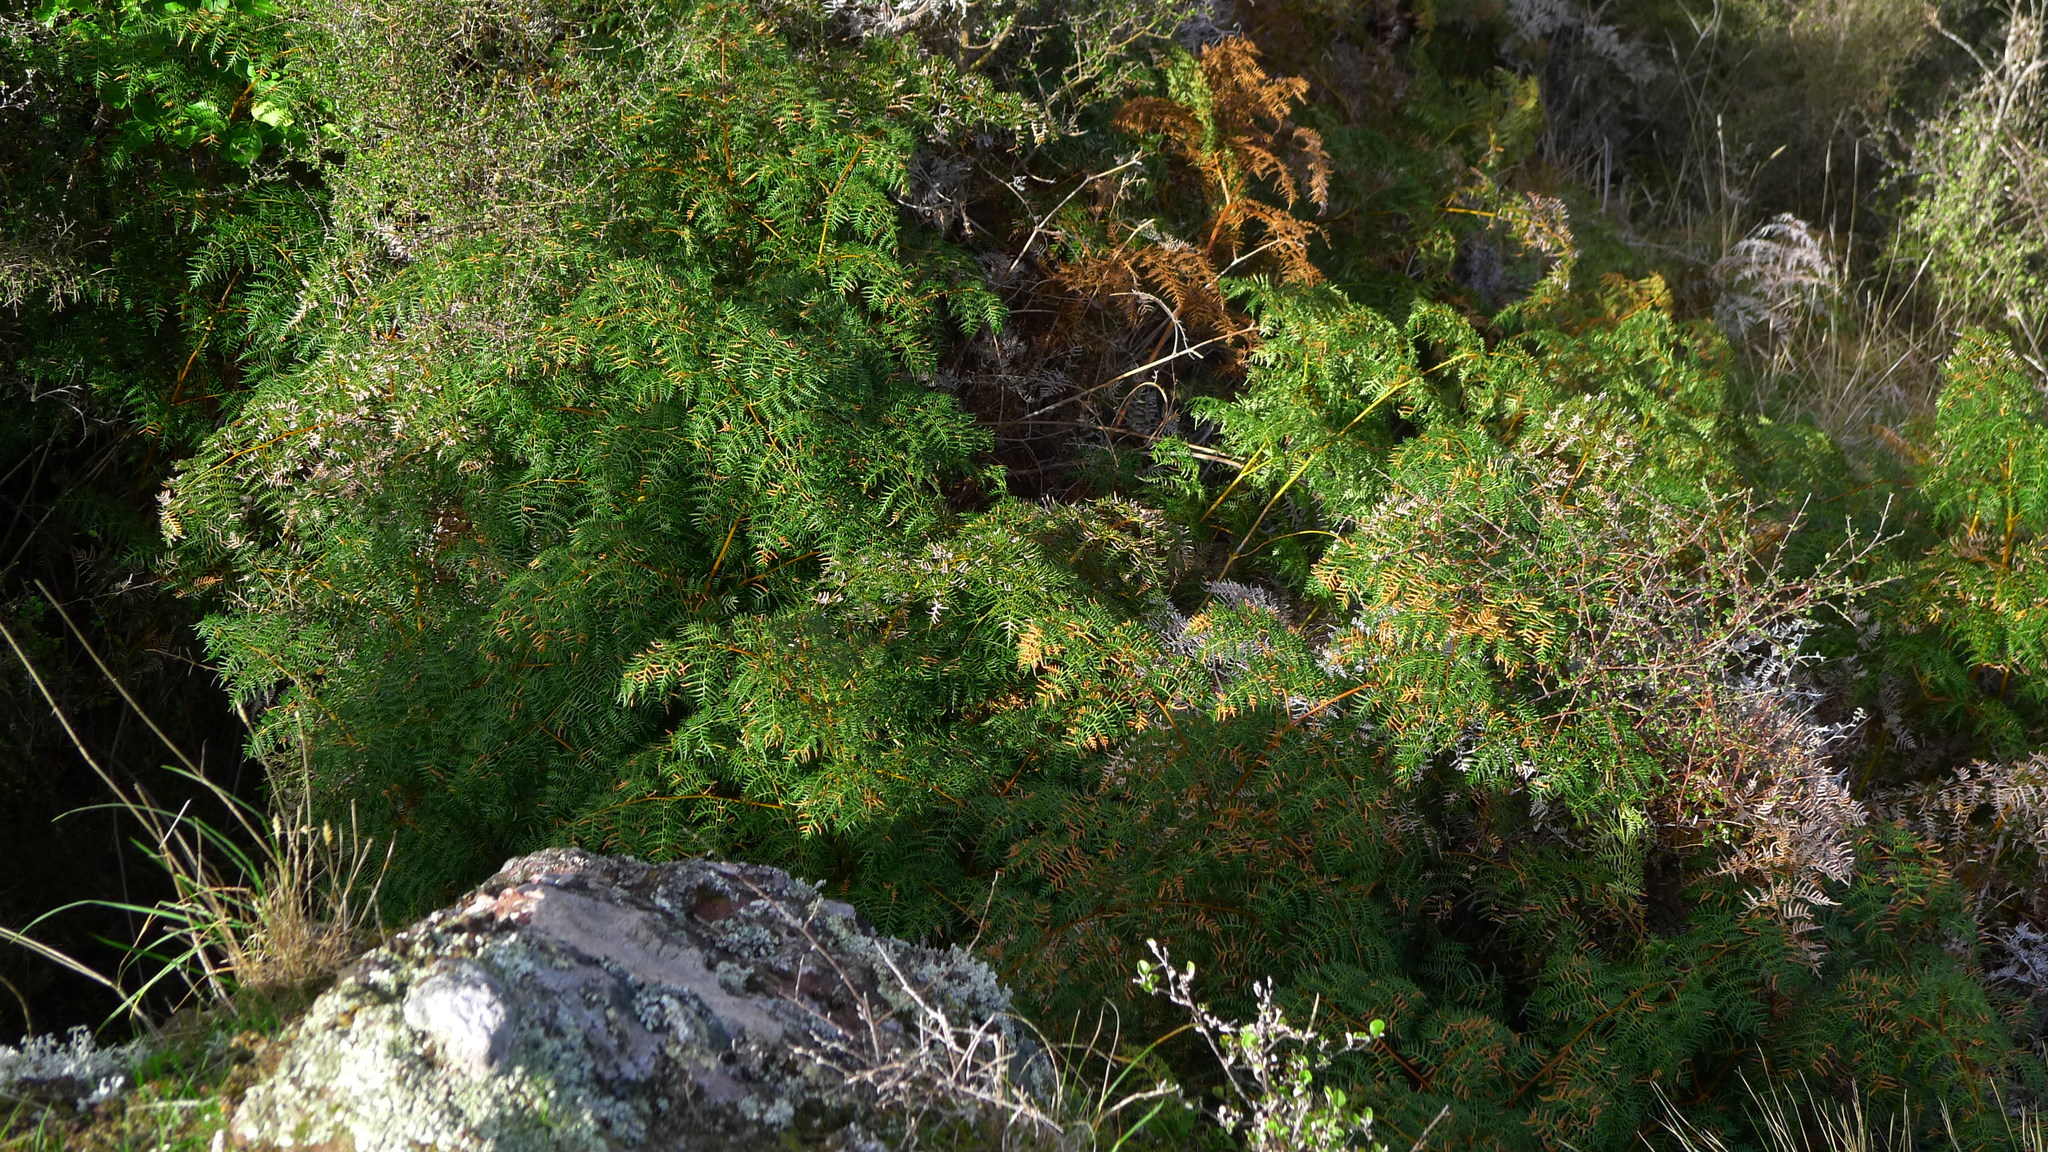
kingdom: Plantae
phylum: Tracheophyta
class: Polypodiopsida
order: Polypodiales
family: Dennstaedtiaceae
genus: Pteridium
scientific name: Pteridium esculentum
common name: Bracken fern
